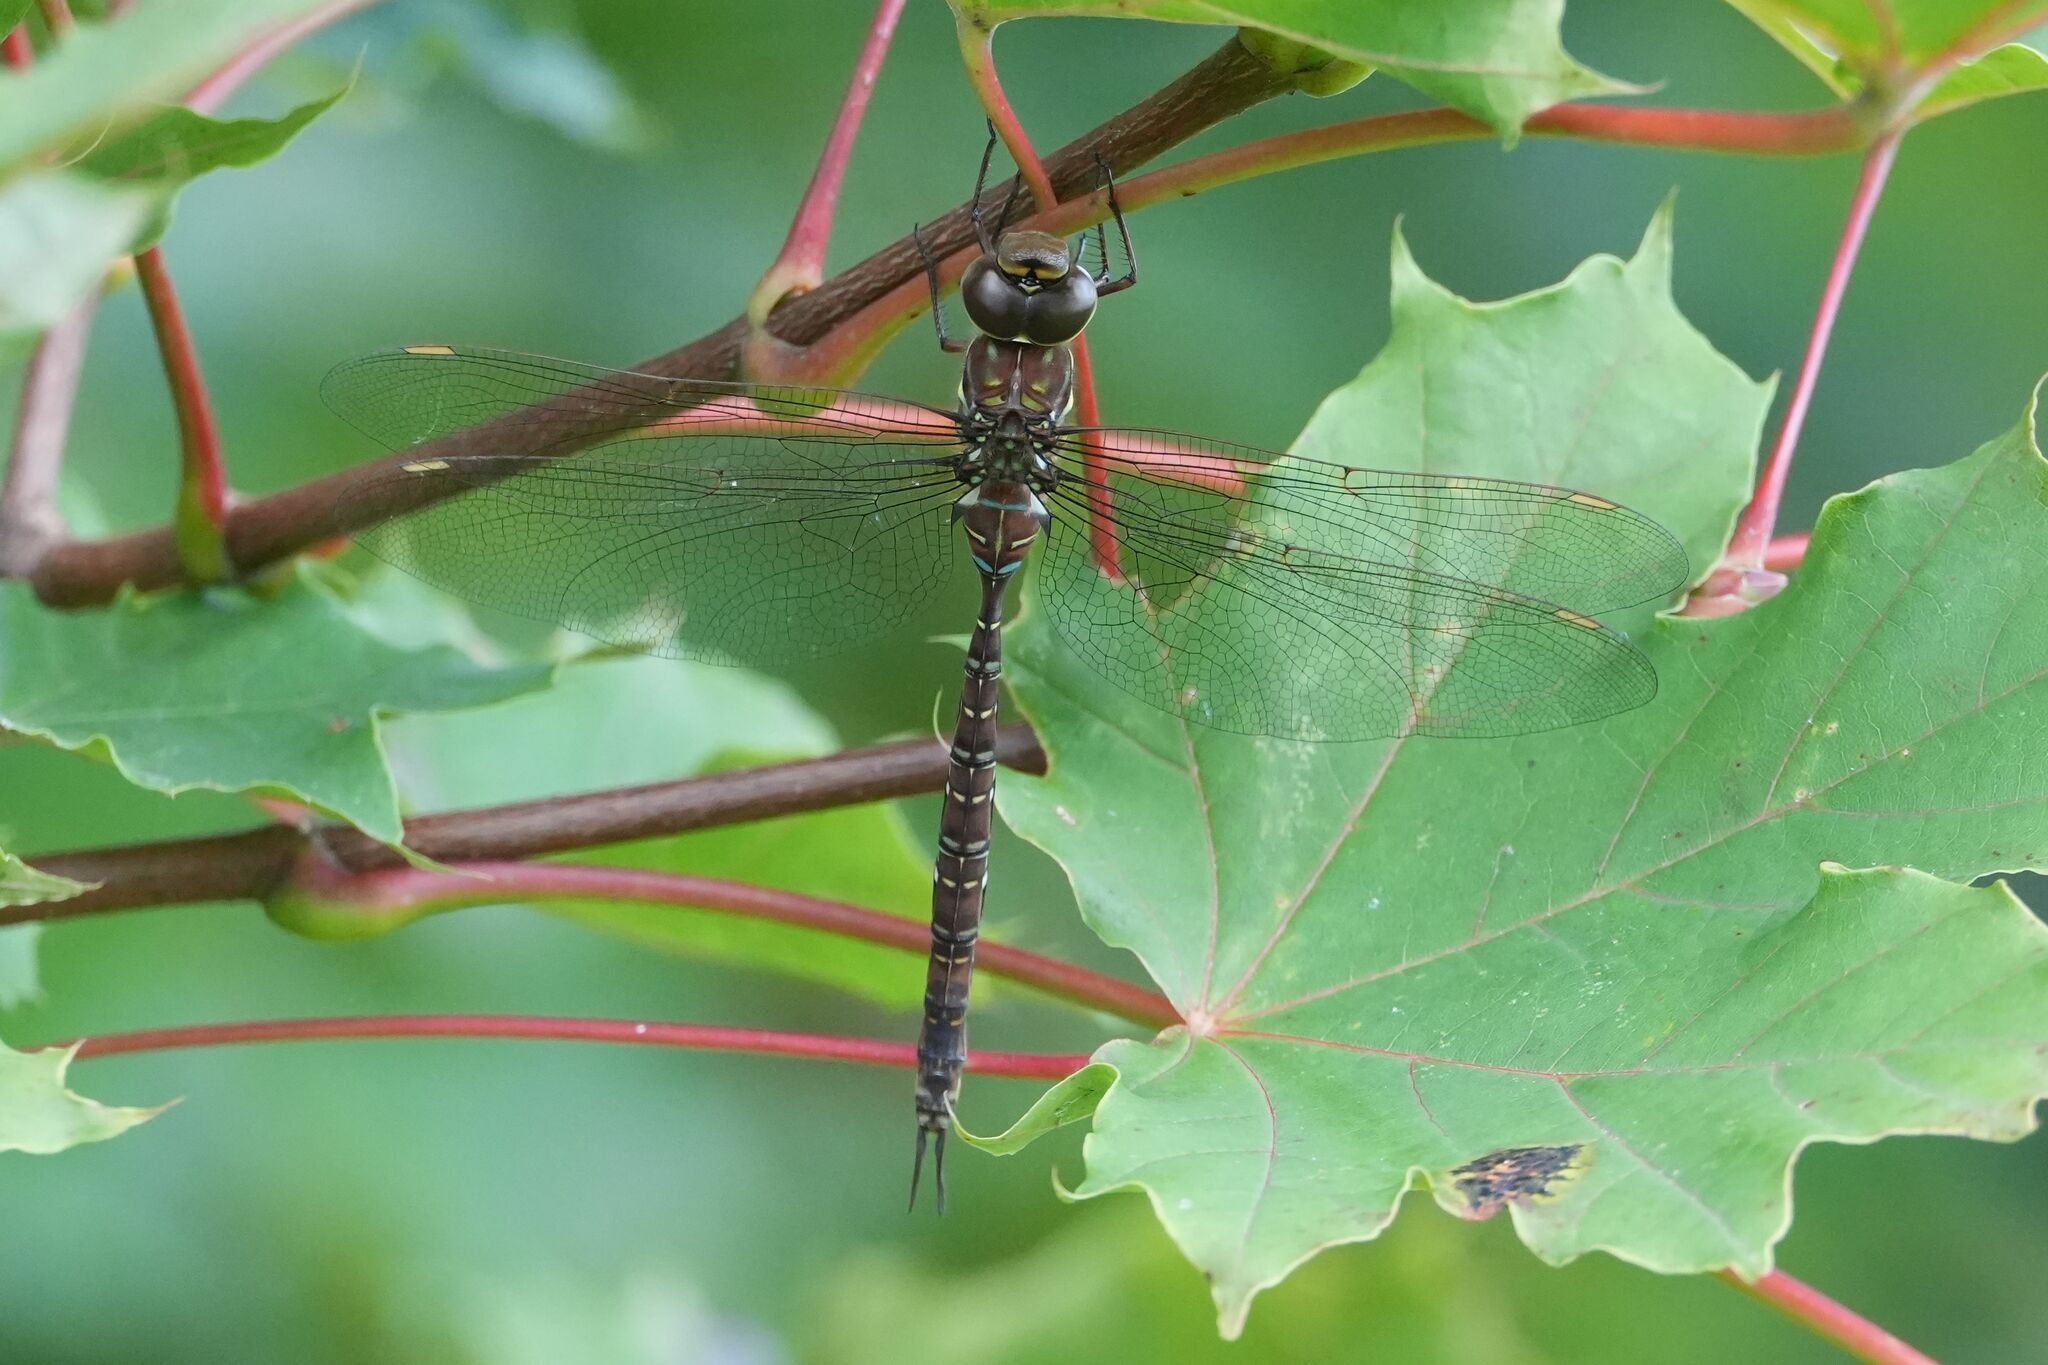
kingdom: Animalia
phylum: Arthropoda
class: Insecta
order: Odonata
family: Aeshnidae
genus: Aeshna
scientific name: Aeshna umbrosa
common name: Shadow darner
